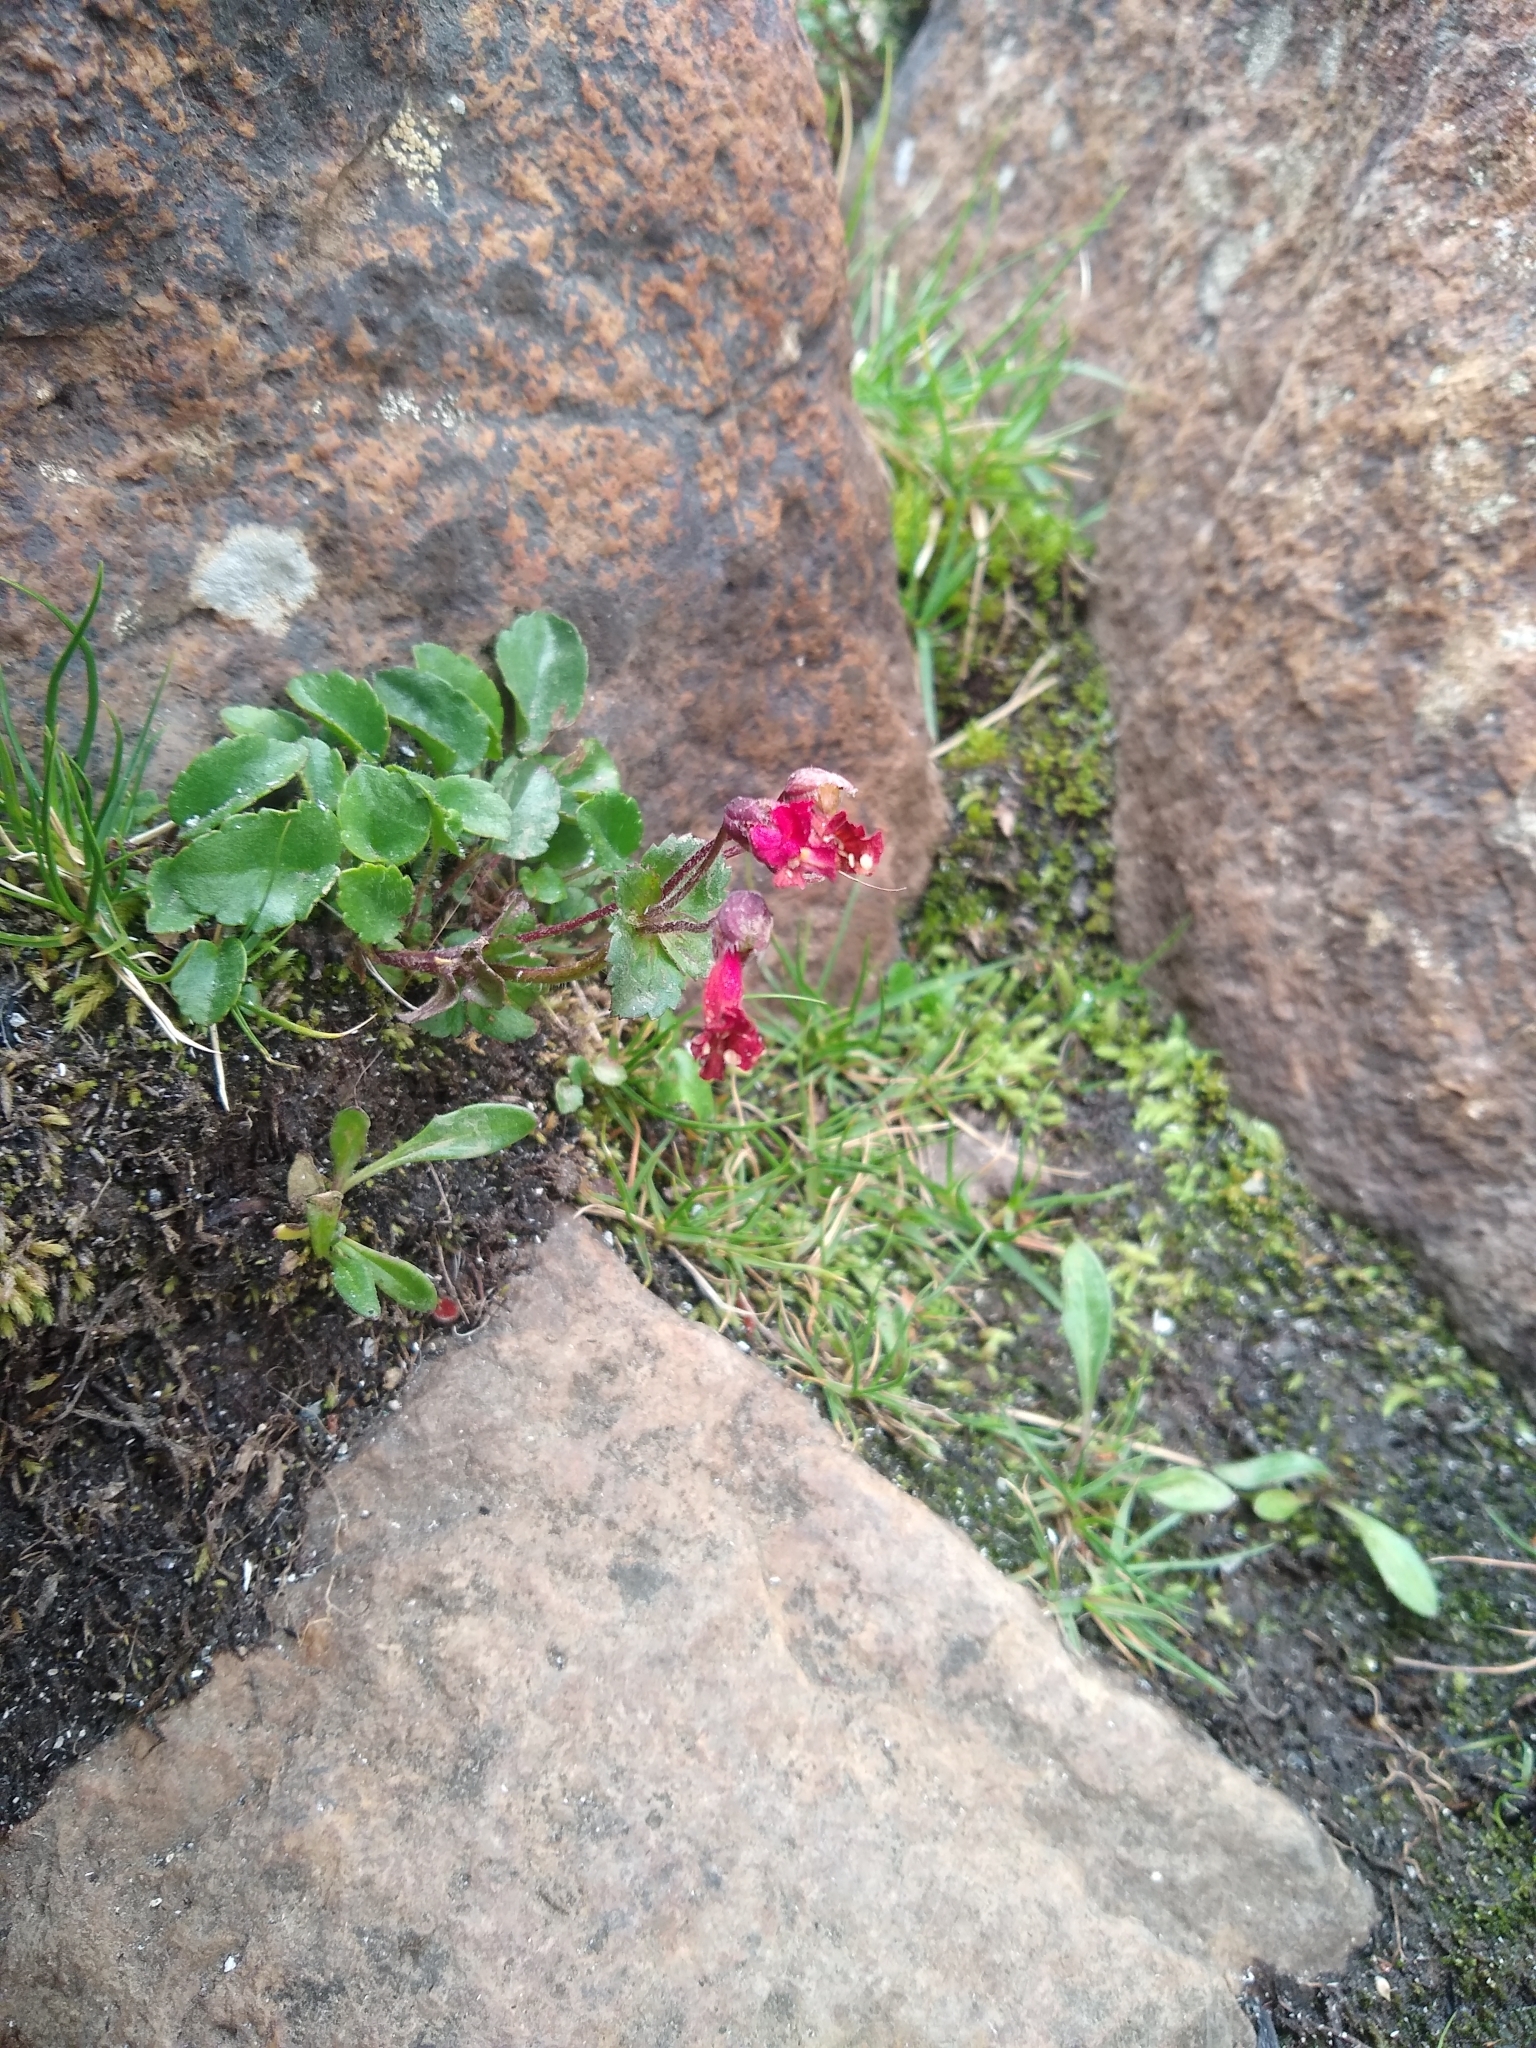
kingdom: Plantae
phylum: Tracheophyta
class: Magnoliopsida
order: Lamiales
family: Plantaginaceae
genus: Ourisia
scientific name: Ourisia ruellioides
